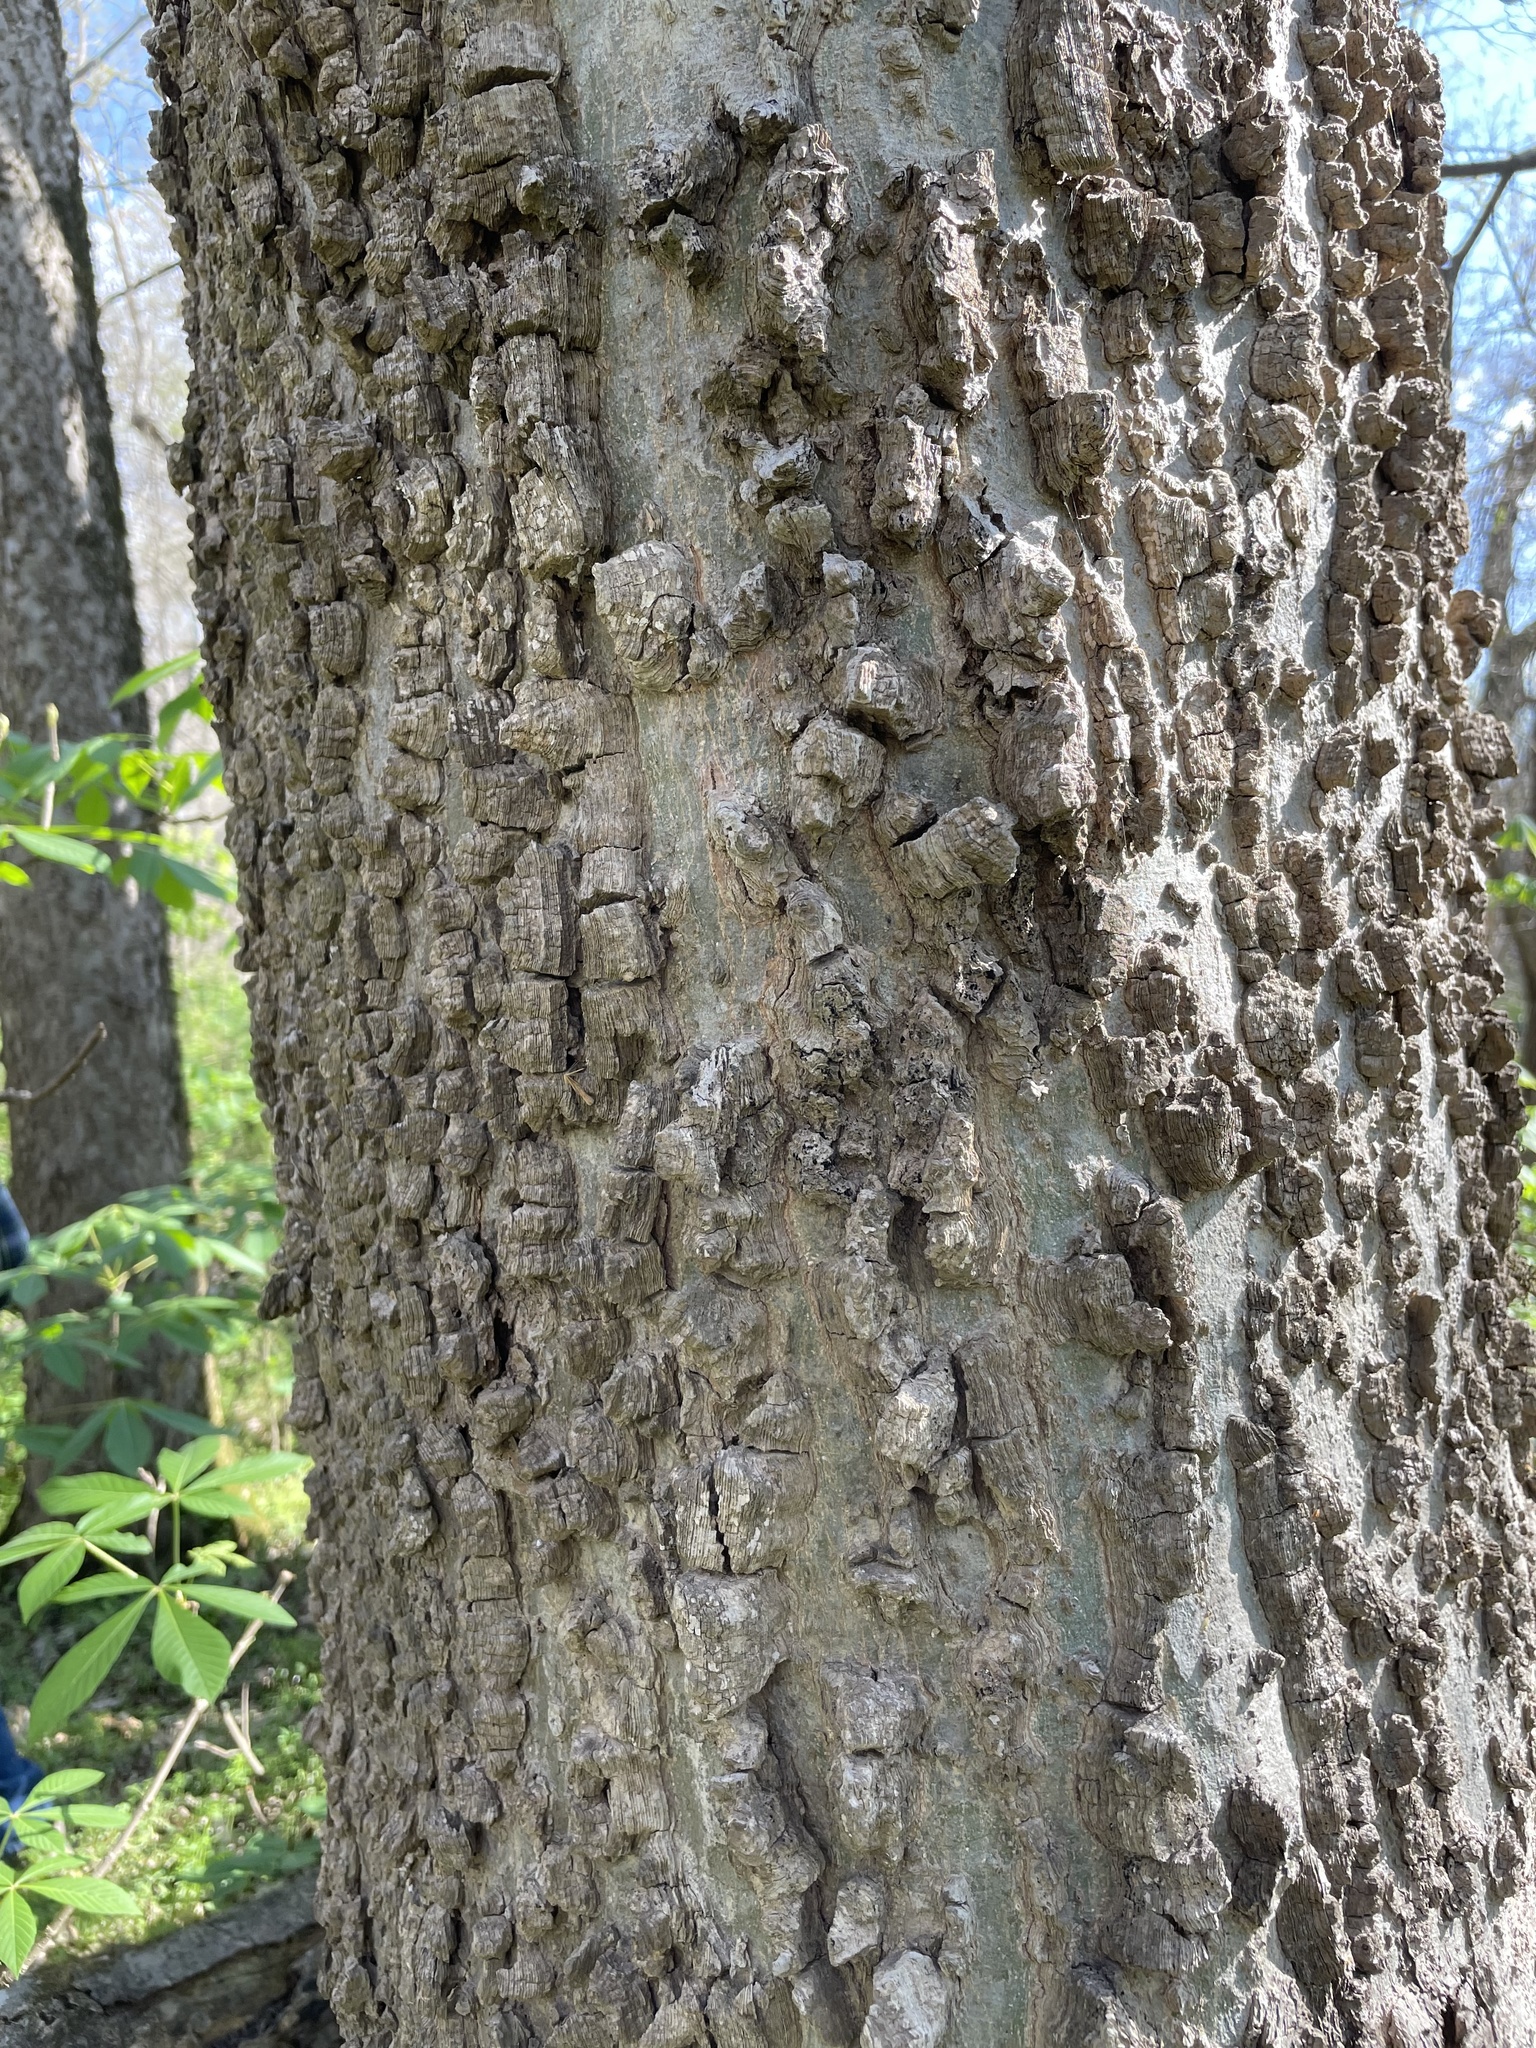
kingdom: Plantae
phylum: Tracheophyta
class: Magnoliopsida
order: Rosales
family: Cannabaceae
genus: Celtis
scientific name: Celtis occidentalis
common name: Common hackberry
